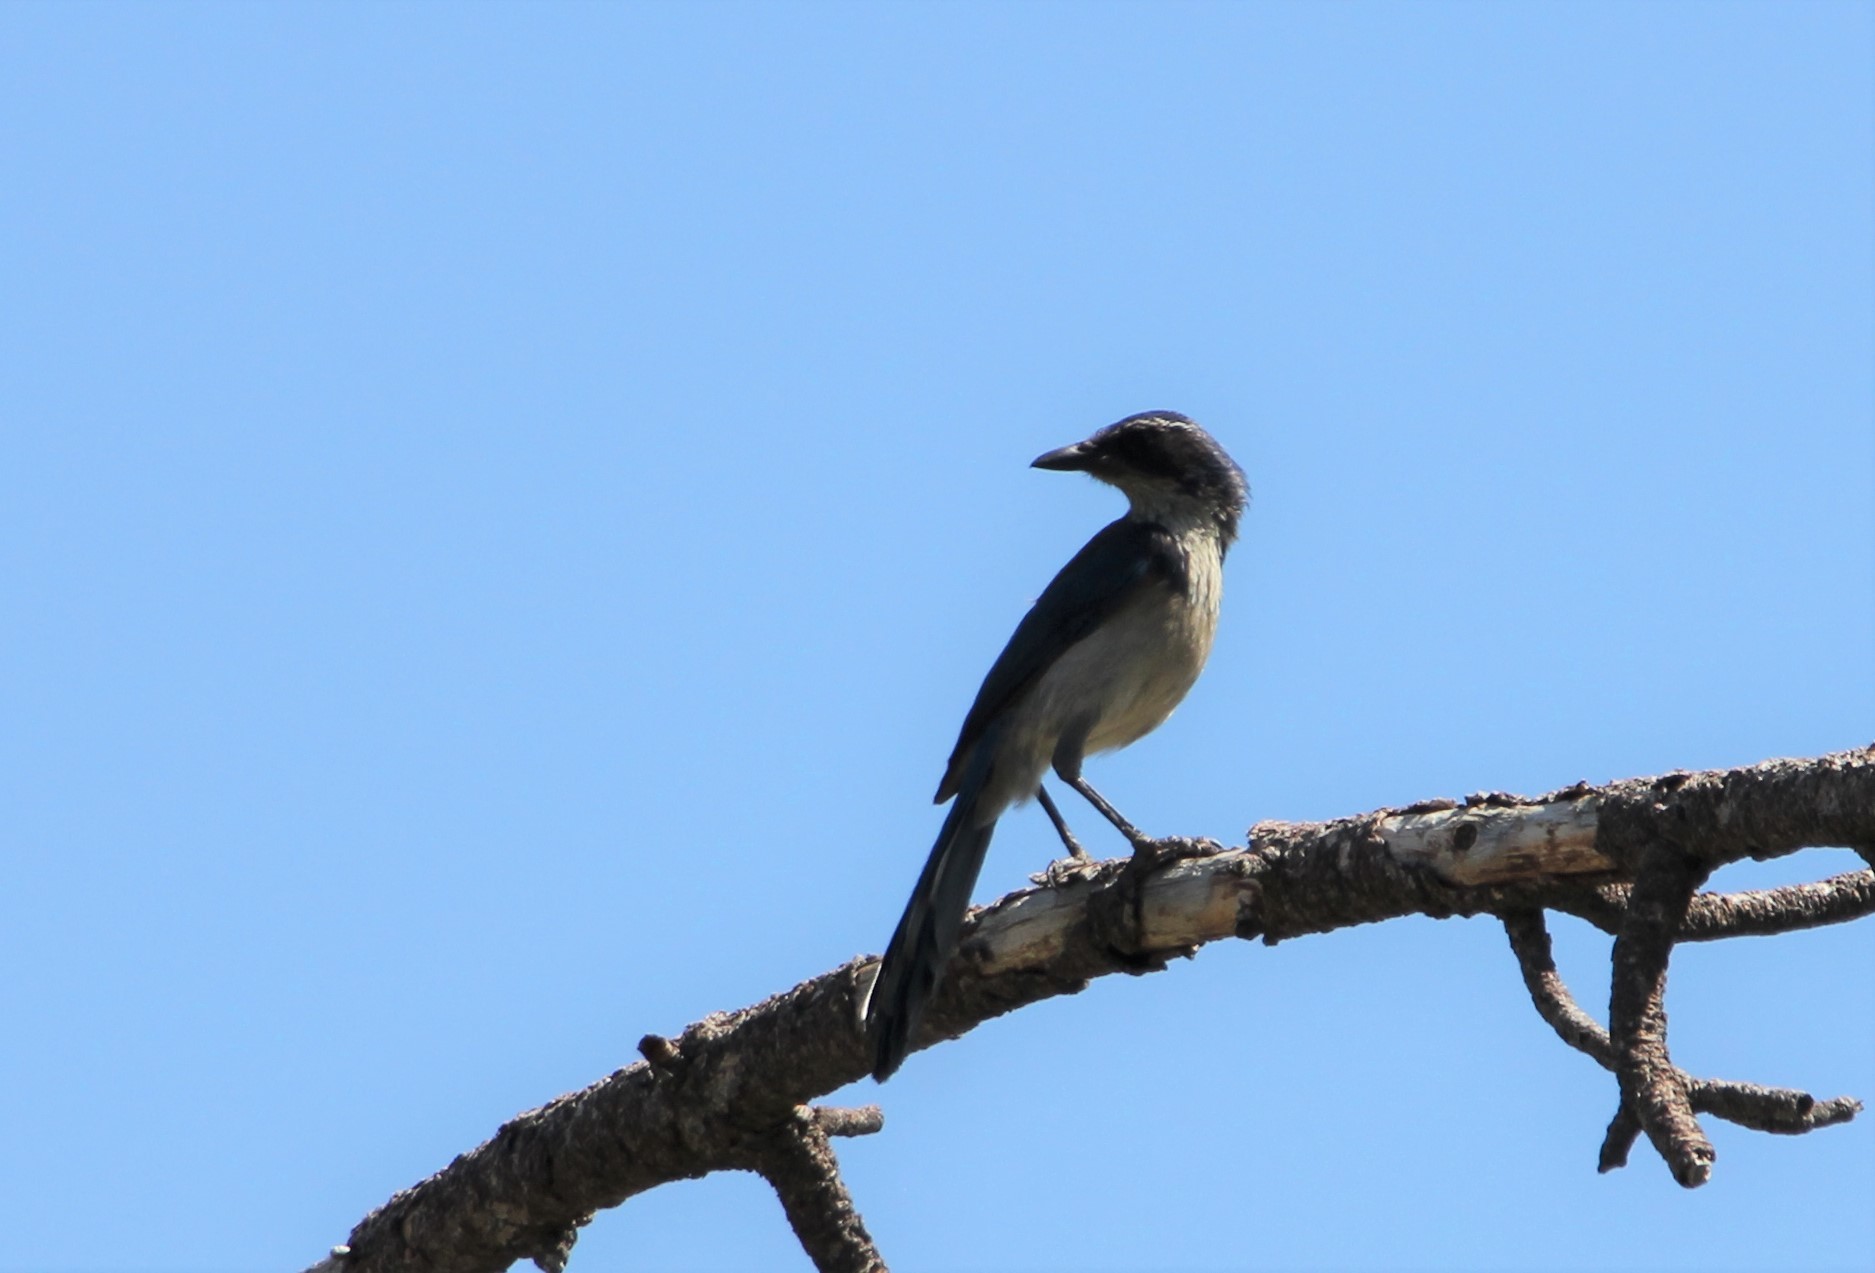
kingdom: Animalia
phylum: Chordata
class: Aves
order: Passeriformes
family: Corvidae
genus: Aphelocoma
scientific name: Aphelocoma californica
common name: California scrub-jay
